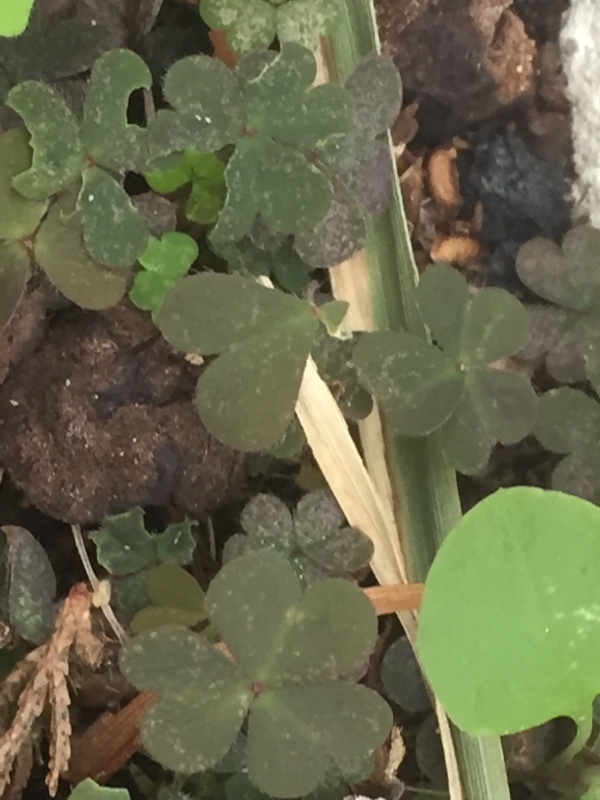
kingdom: Plantae
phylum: Tracheophyta
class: Magnoliopsida
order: Oxalidales
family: Oxalidaceae
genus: Oxalis
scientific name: Oxalis corniculata
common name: Procumbent yellow-sorrel
